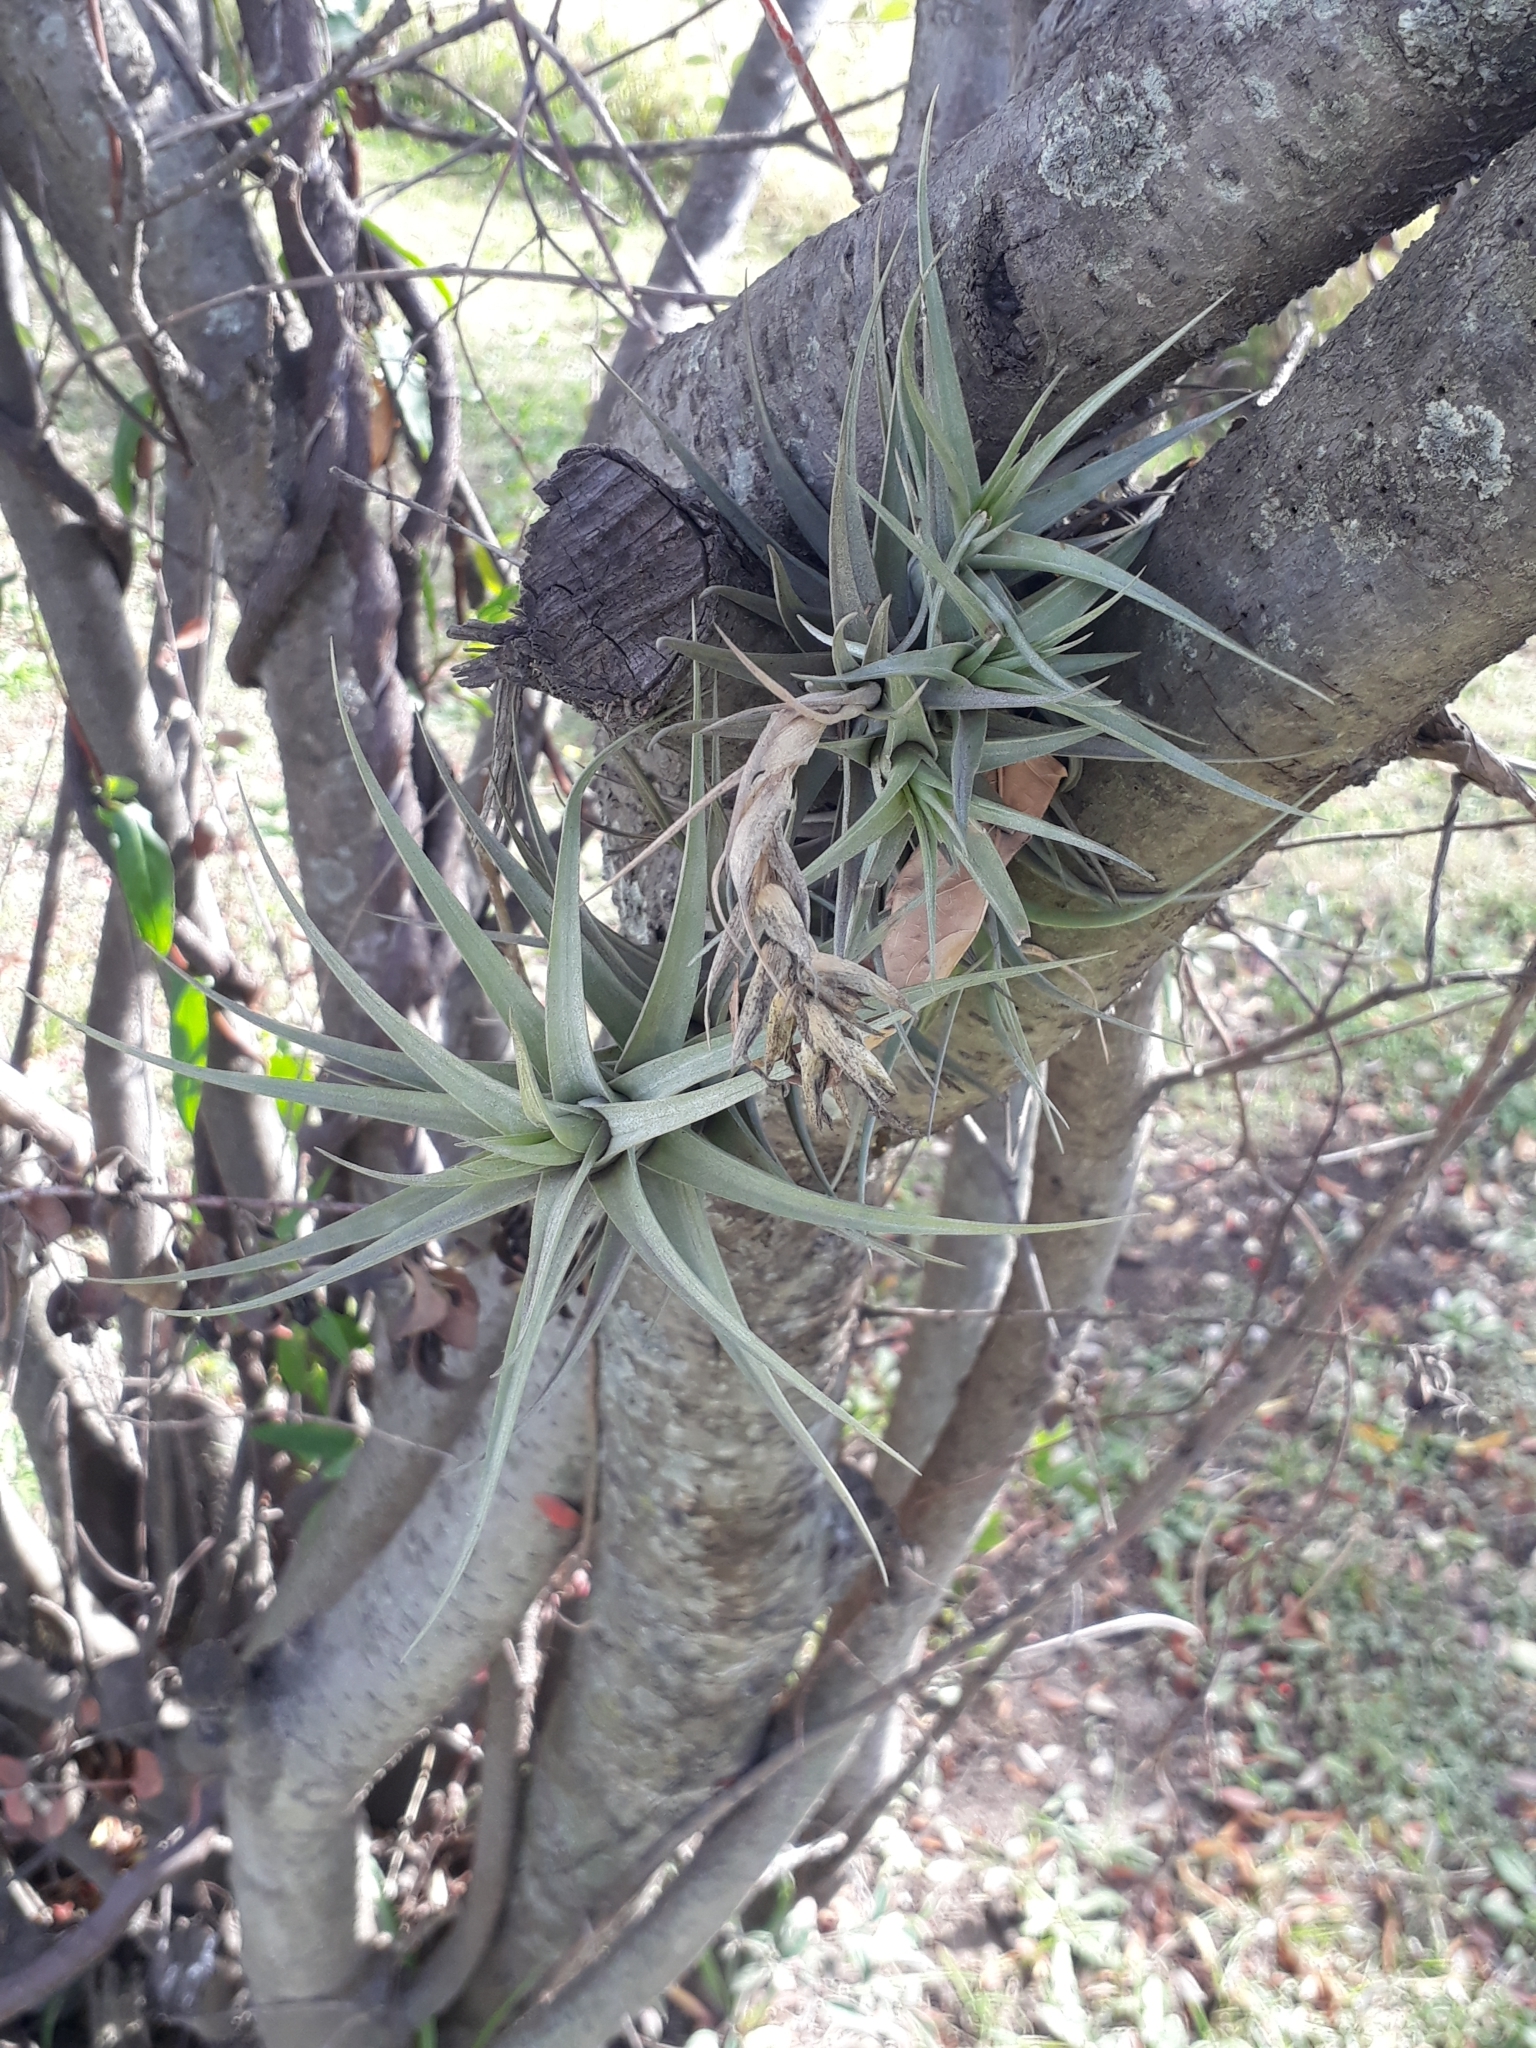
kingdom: Plantae
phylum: Tracheophyta
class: Liliopsida
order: Poales
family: Bromeliaceae
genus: Tillandsia
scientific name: Tillandsia aeranthos
